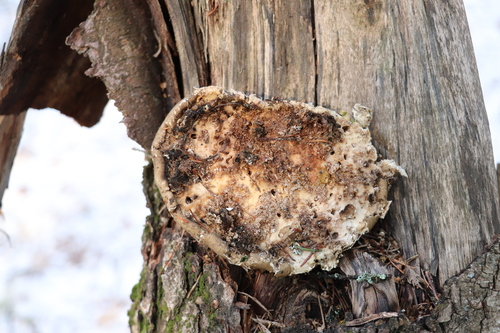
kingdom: Fungi
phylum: Basidiomycota
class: Agaricomycetes
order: Polyporales
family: Fomitopsidaceae
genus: Fomitopsis
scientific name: Fomitopsis betulina
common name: Birch polypore
